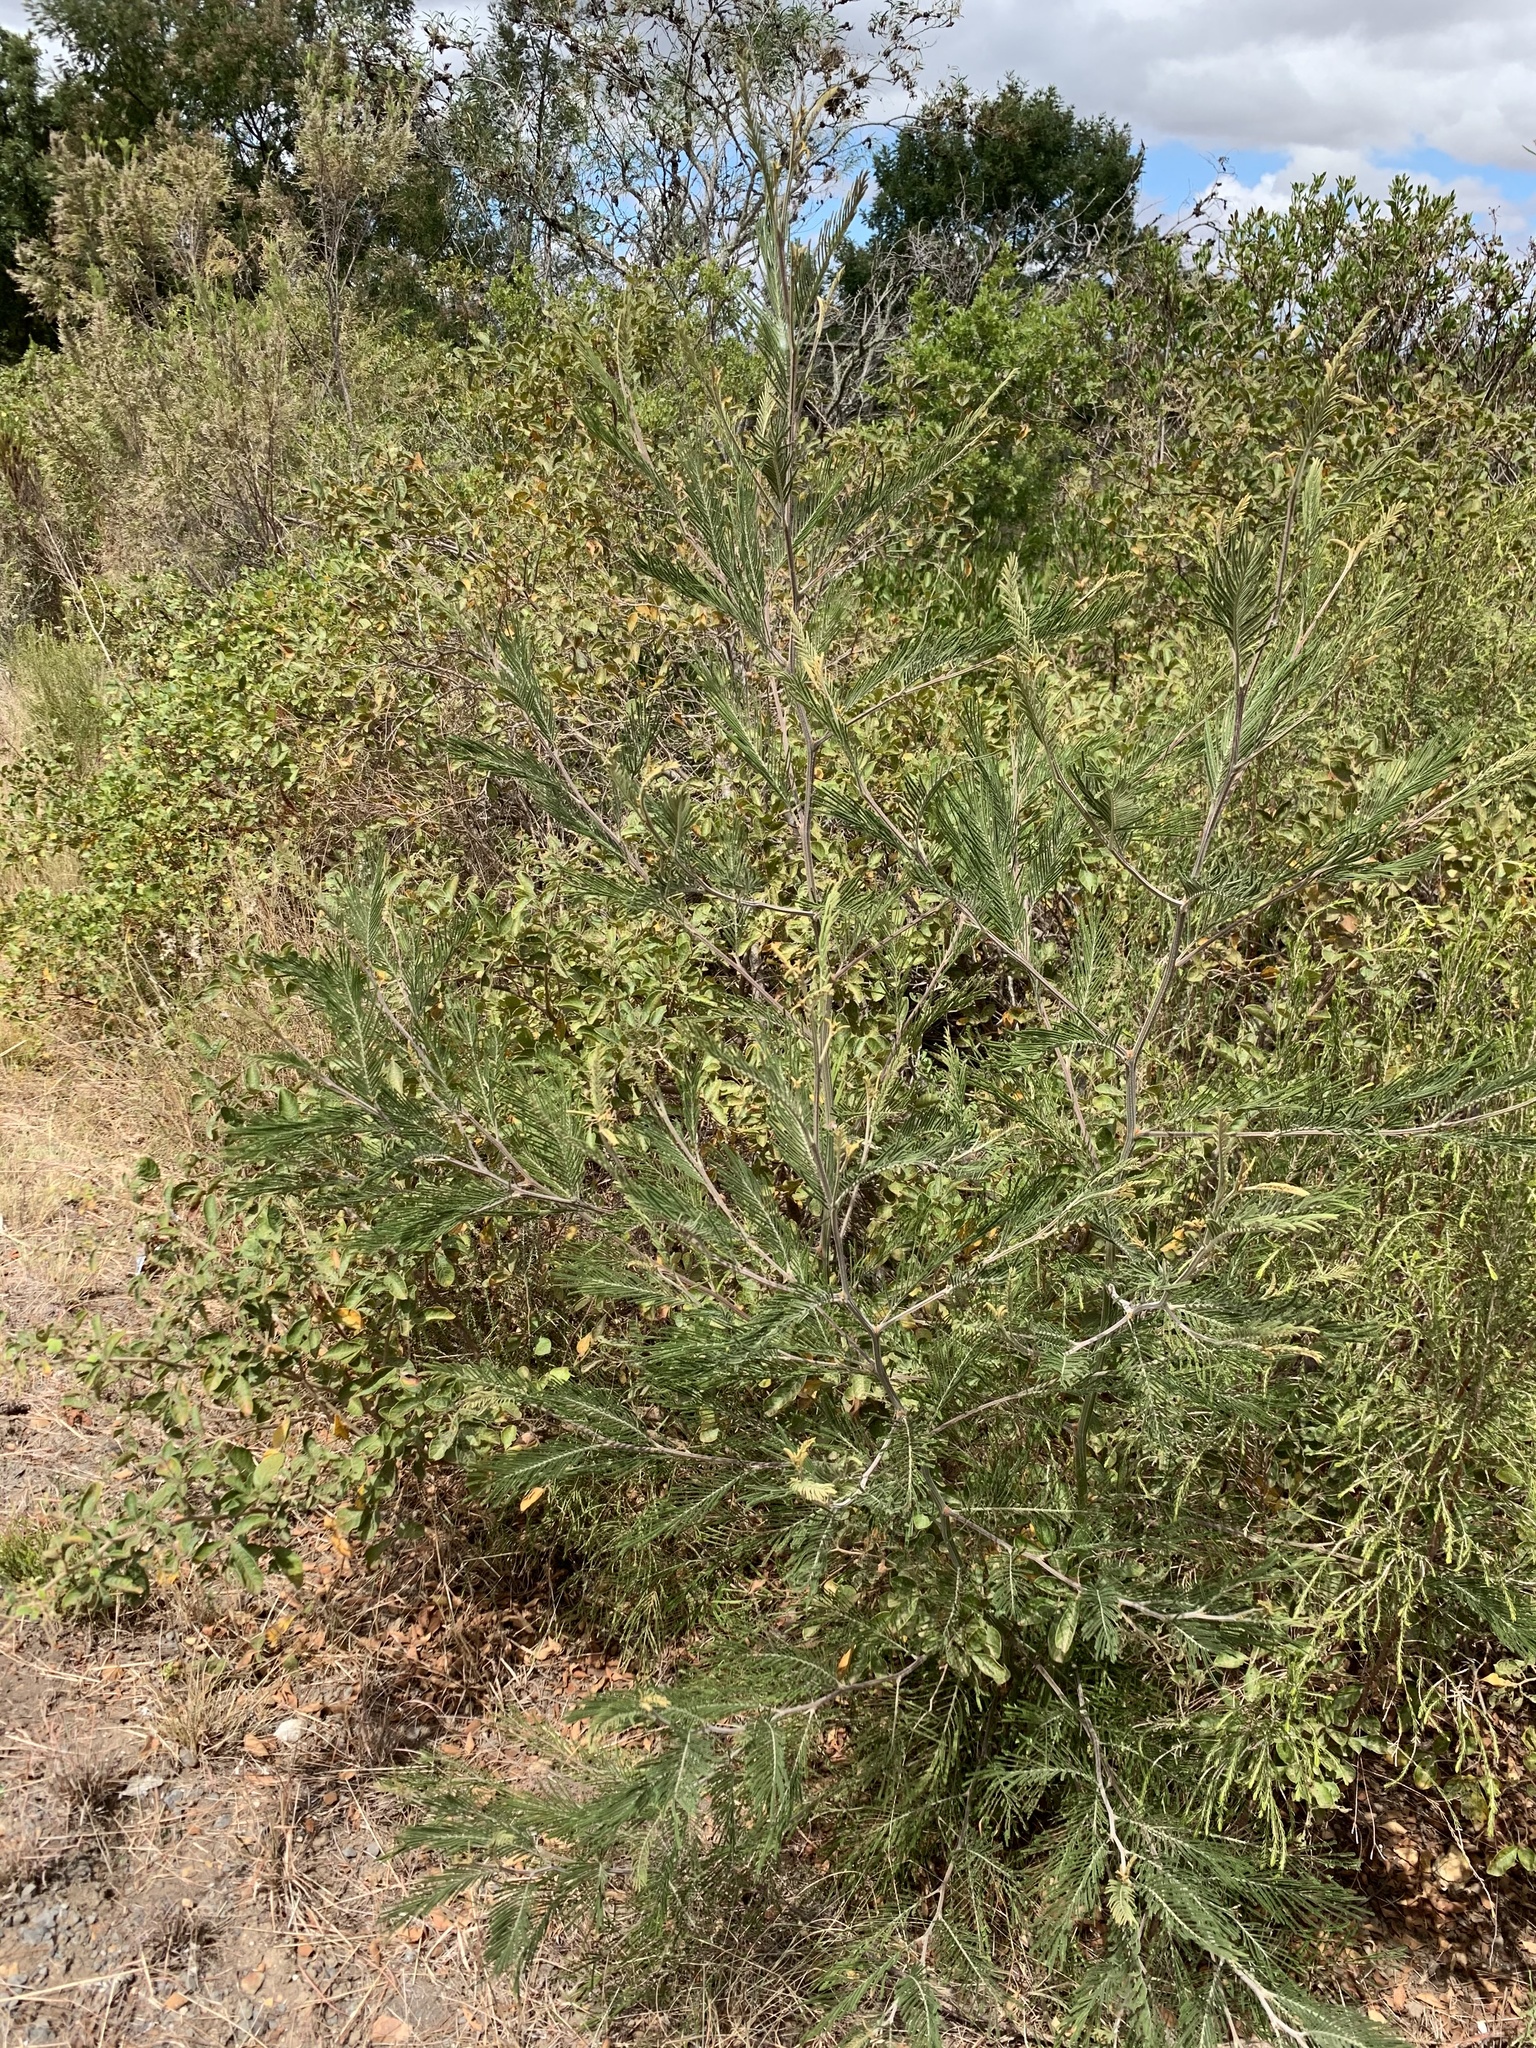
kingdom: Plantae
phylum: Tracheophyta
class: Magnoliopsida
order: Fabales
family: Fabaceae
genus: Acacia
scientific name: Acacia mearnsii
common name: Black wattle
